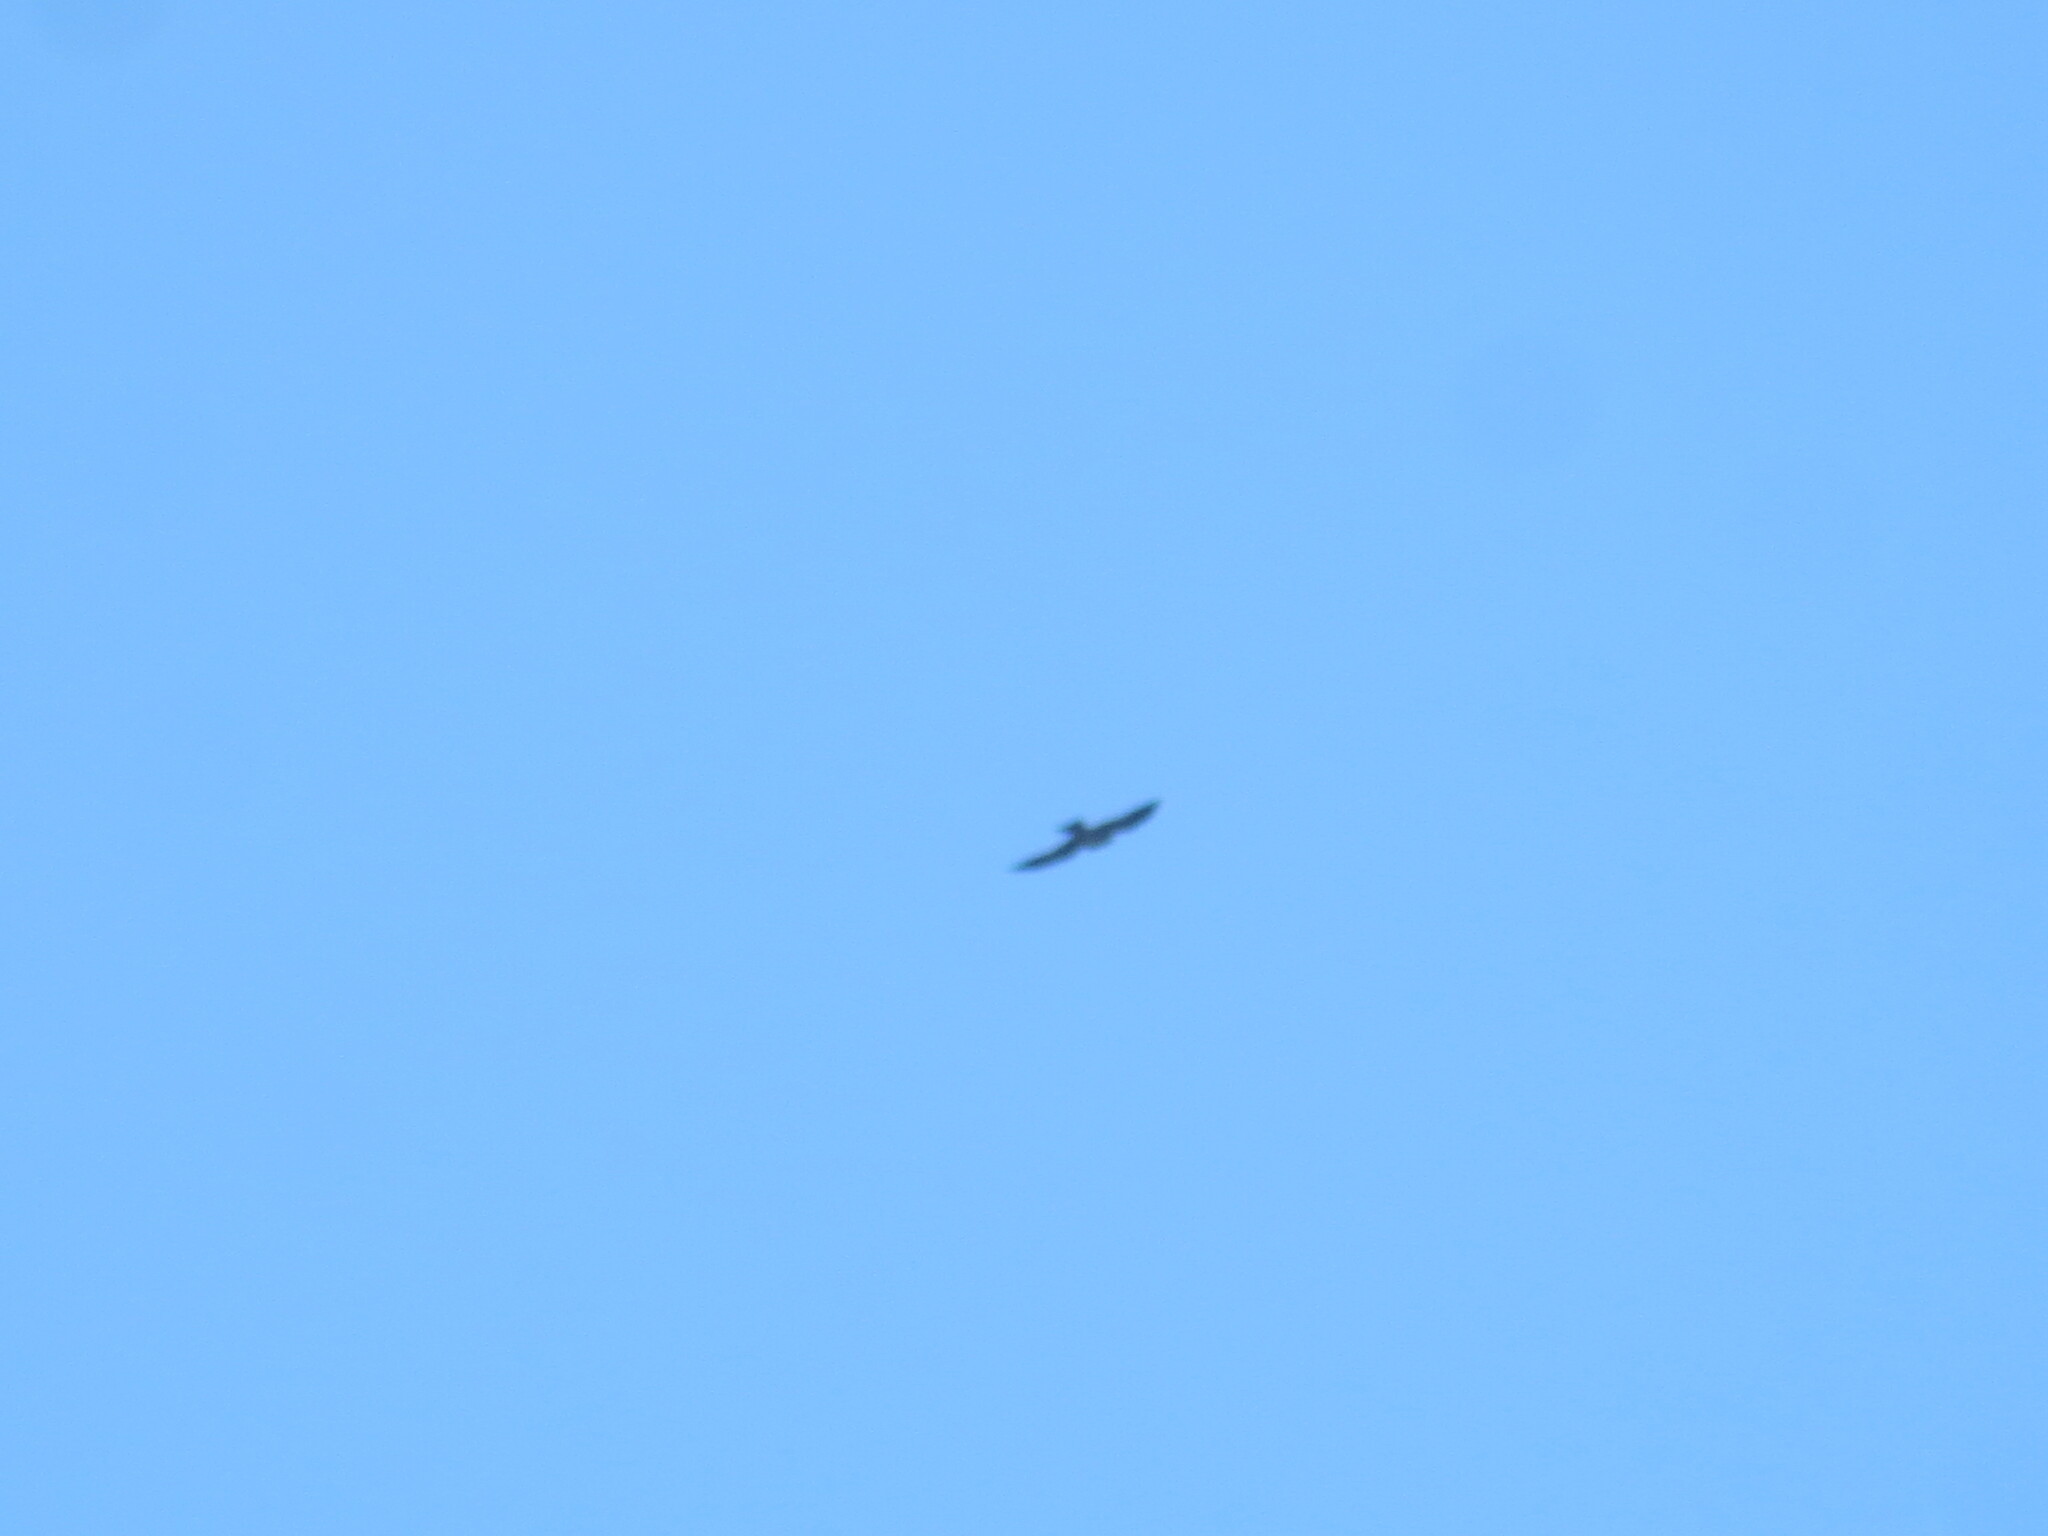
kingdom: Animalia
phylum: Chordata
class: Aves
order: Accipitriformes
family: Accipitridae
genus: Ictinia
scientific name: Ictinia mississippiensis
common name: Mississippi kite
